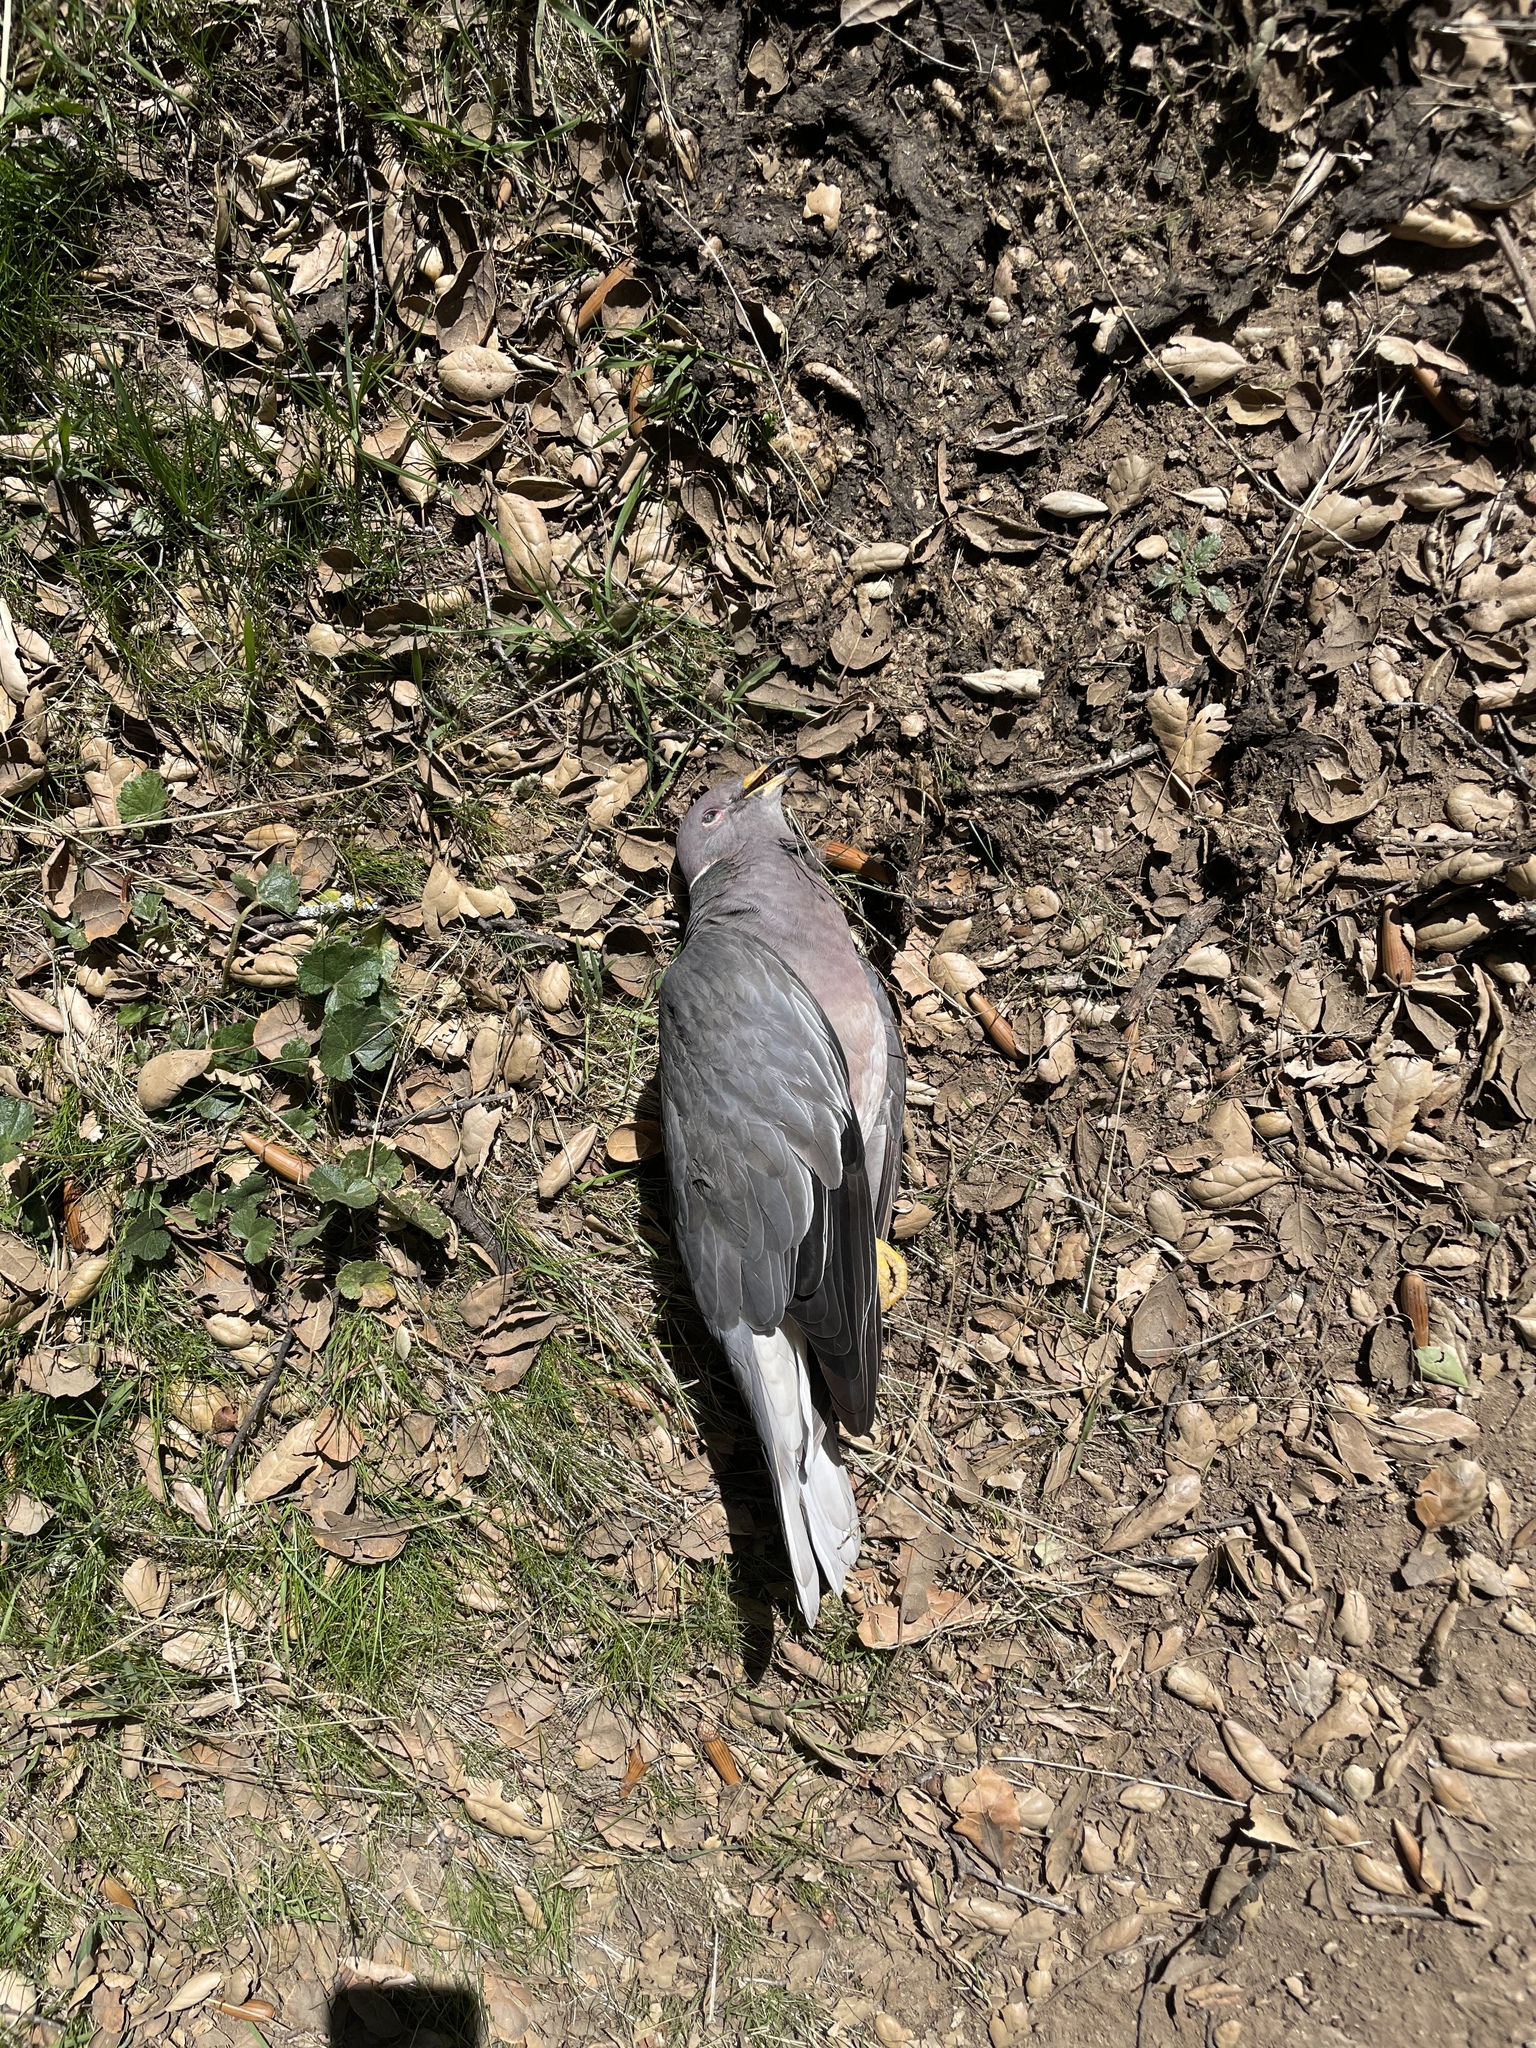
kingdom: Animalia
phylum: Chordata
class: Aves
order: Columbiformes
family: Columbidae
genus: Patagioenas
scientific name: Patagioenas fasciata
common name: Band-tailed pigeon
